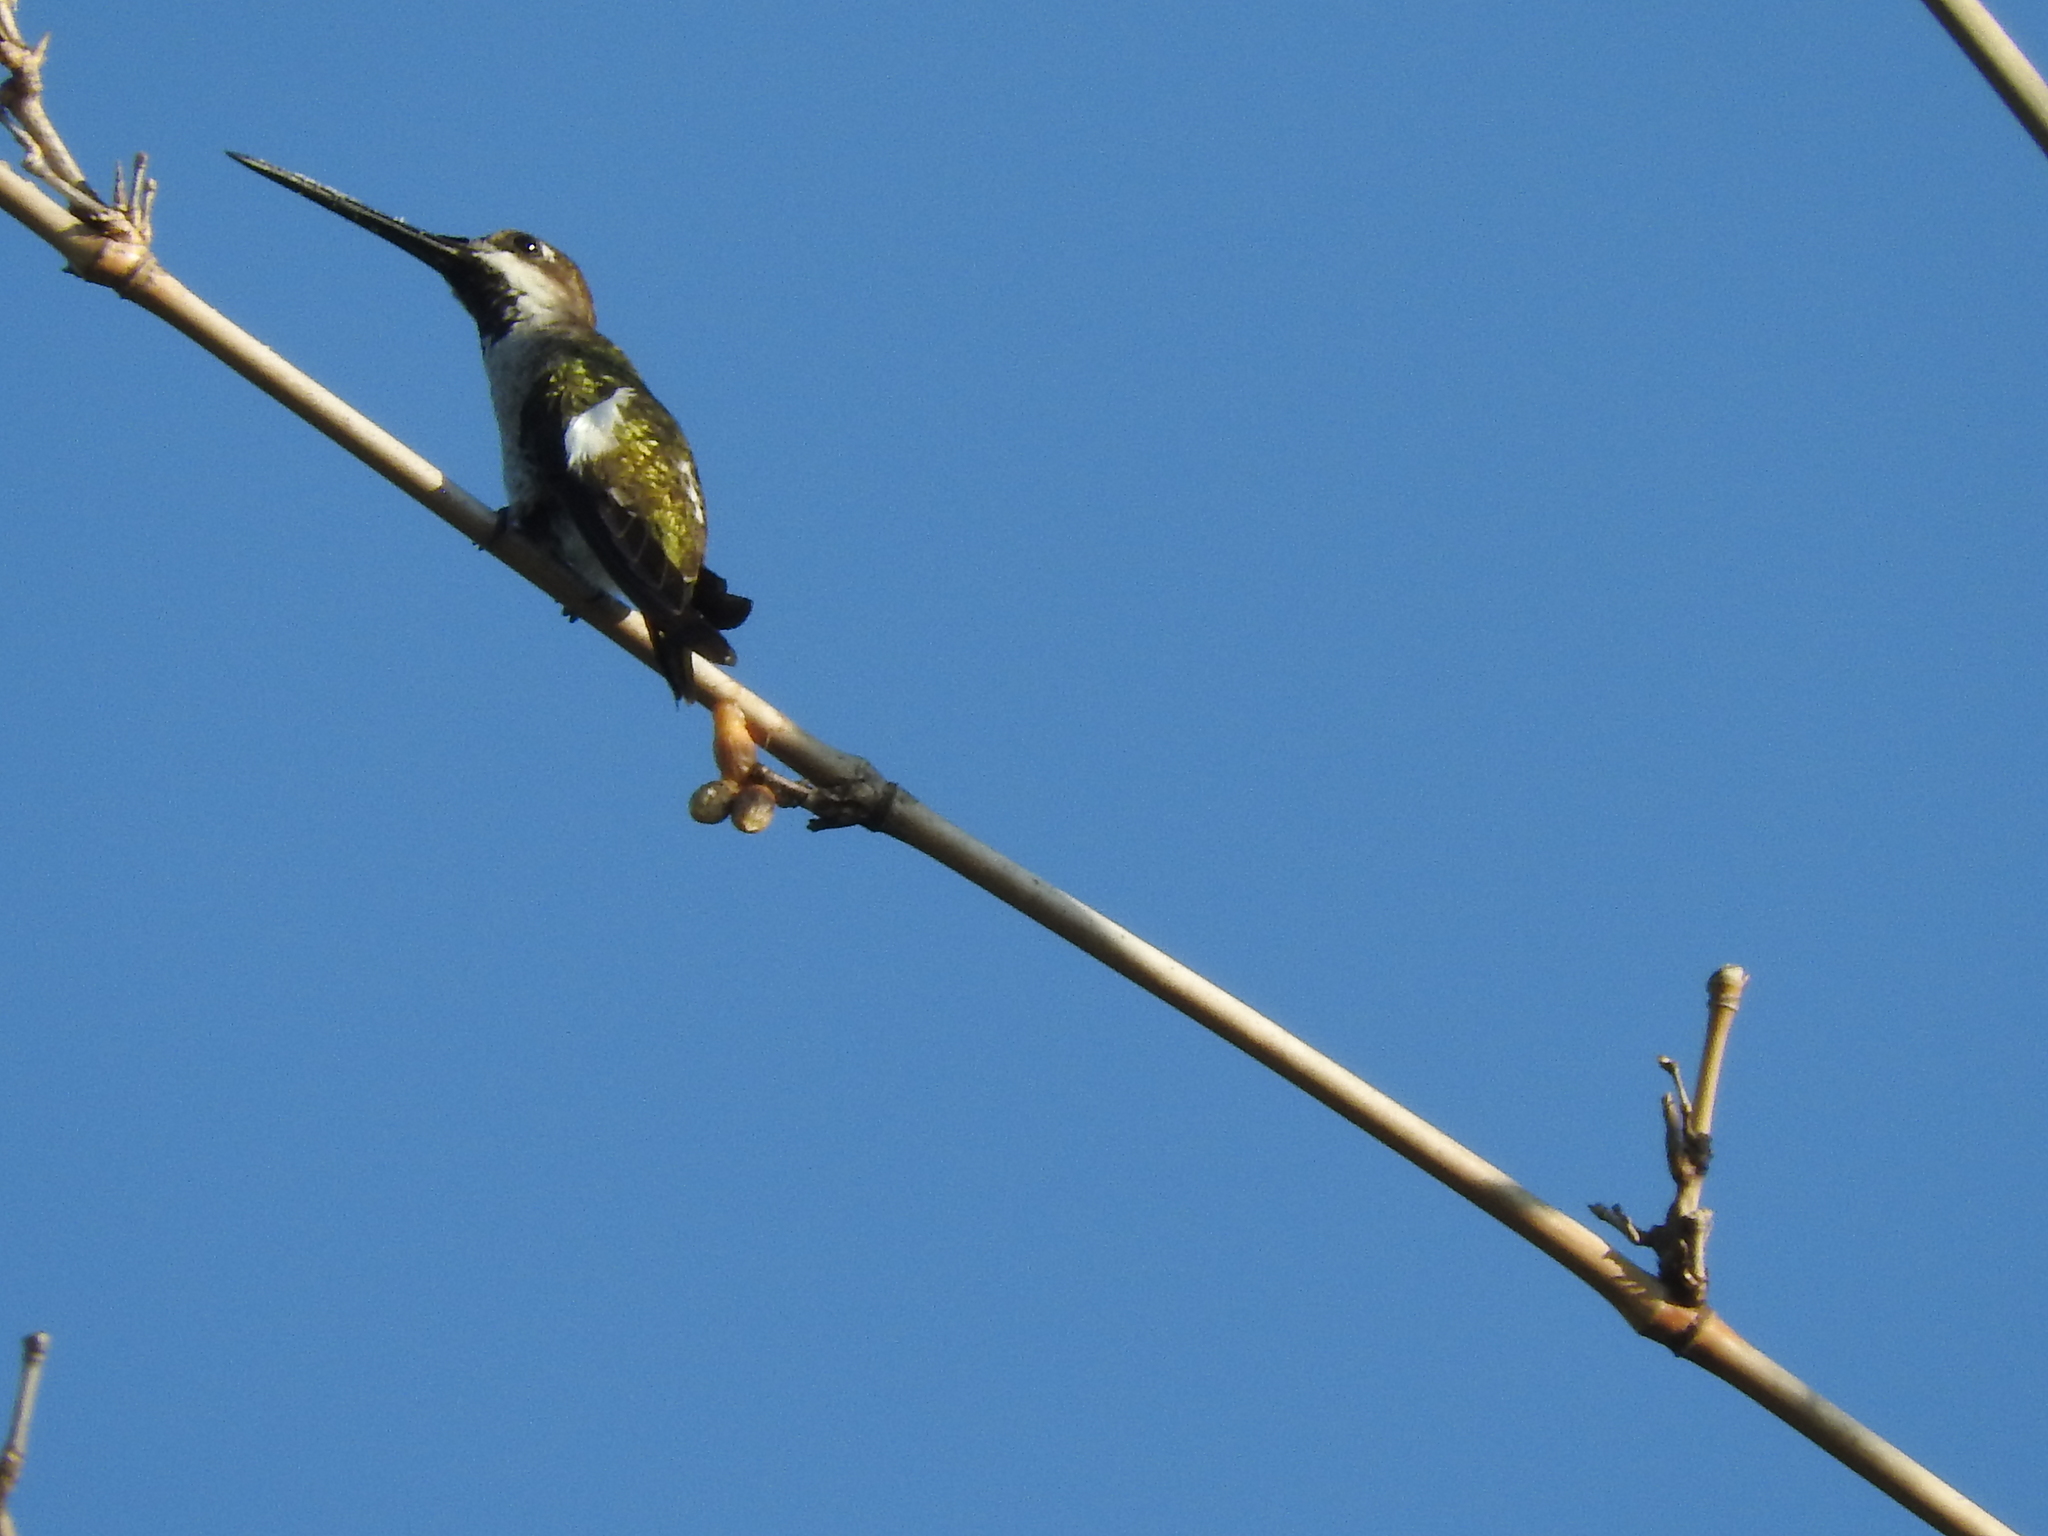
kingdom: Animalia
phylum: Chordata
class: Aves
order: Apodiformes
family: Trochilidae
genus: Heliomaster
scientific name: Heliomaster longirostris
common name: Long-billed starthroat
